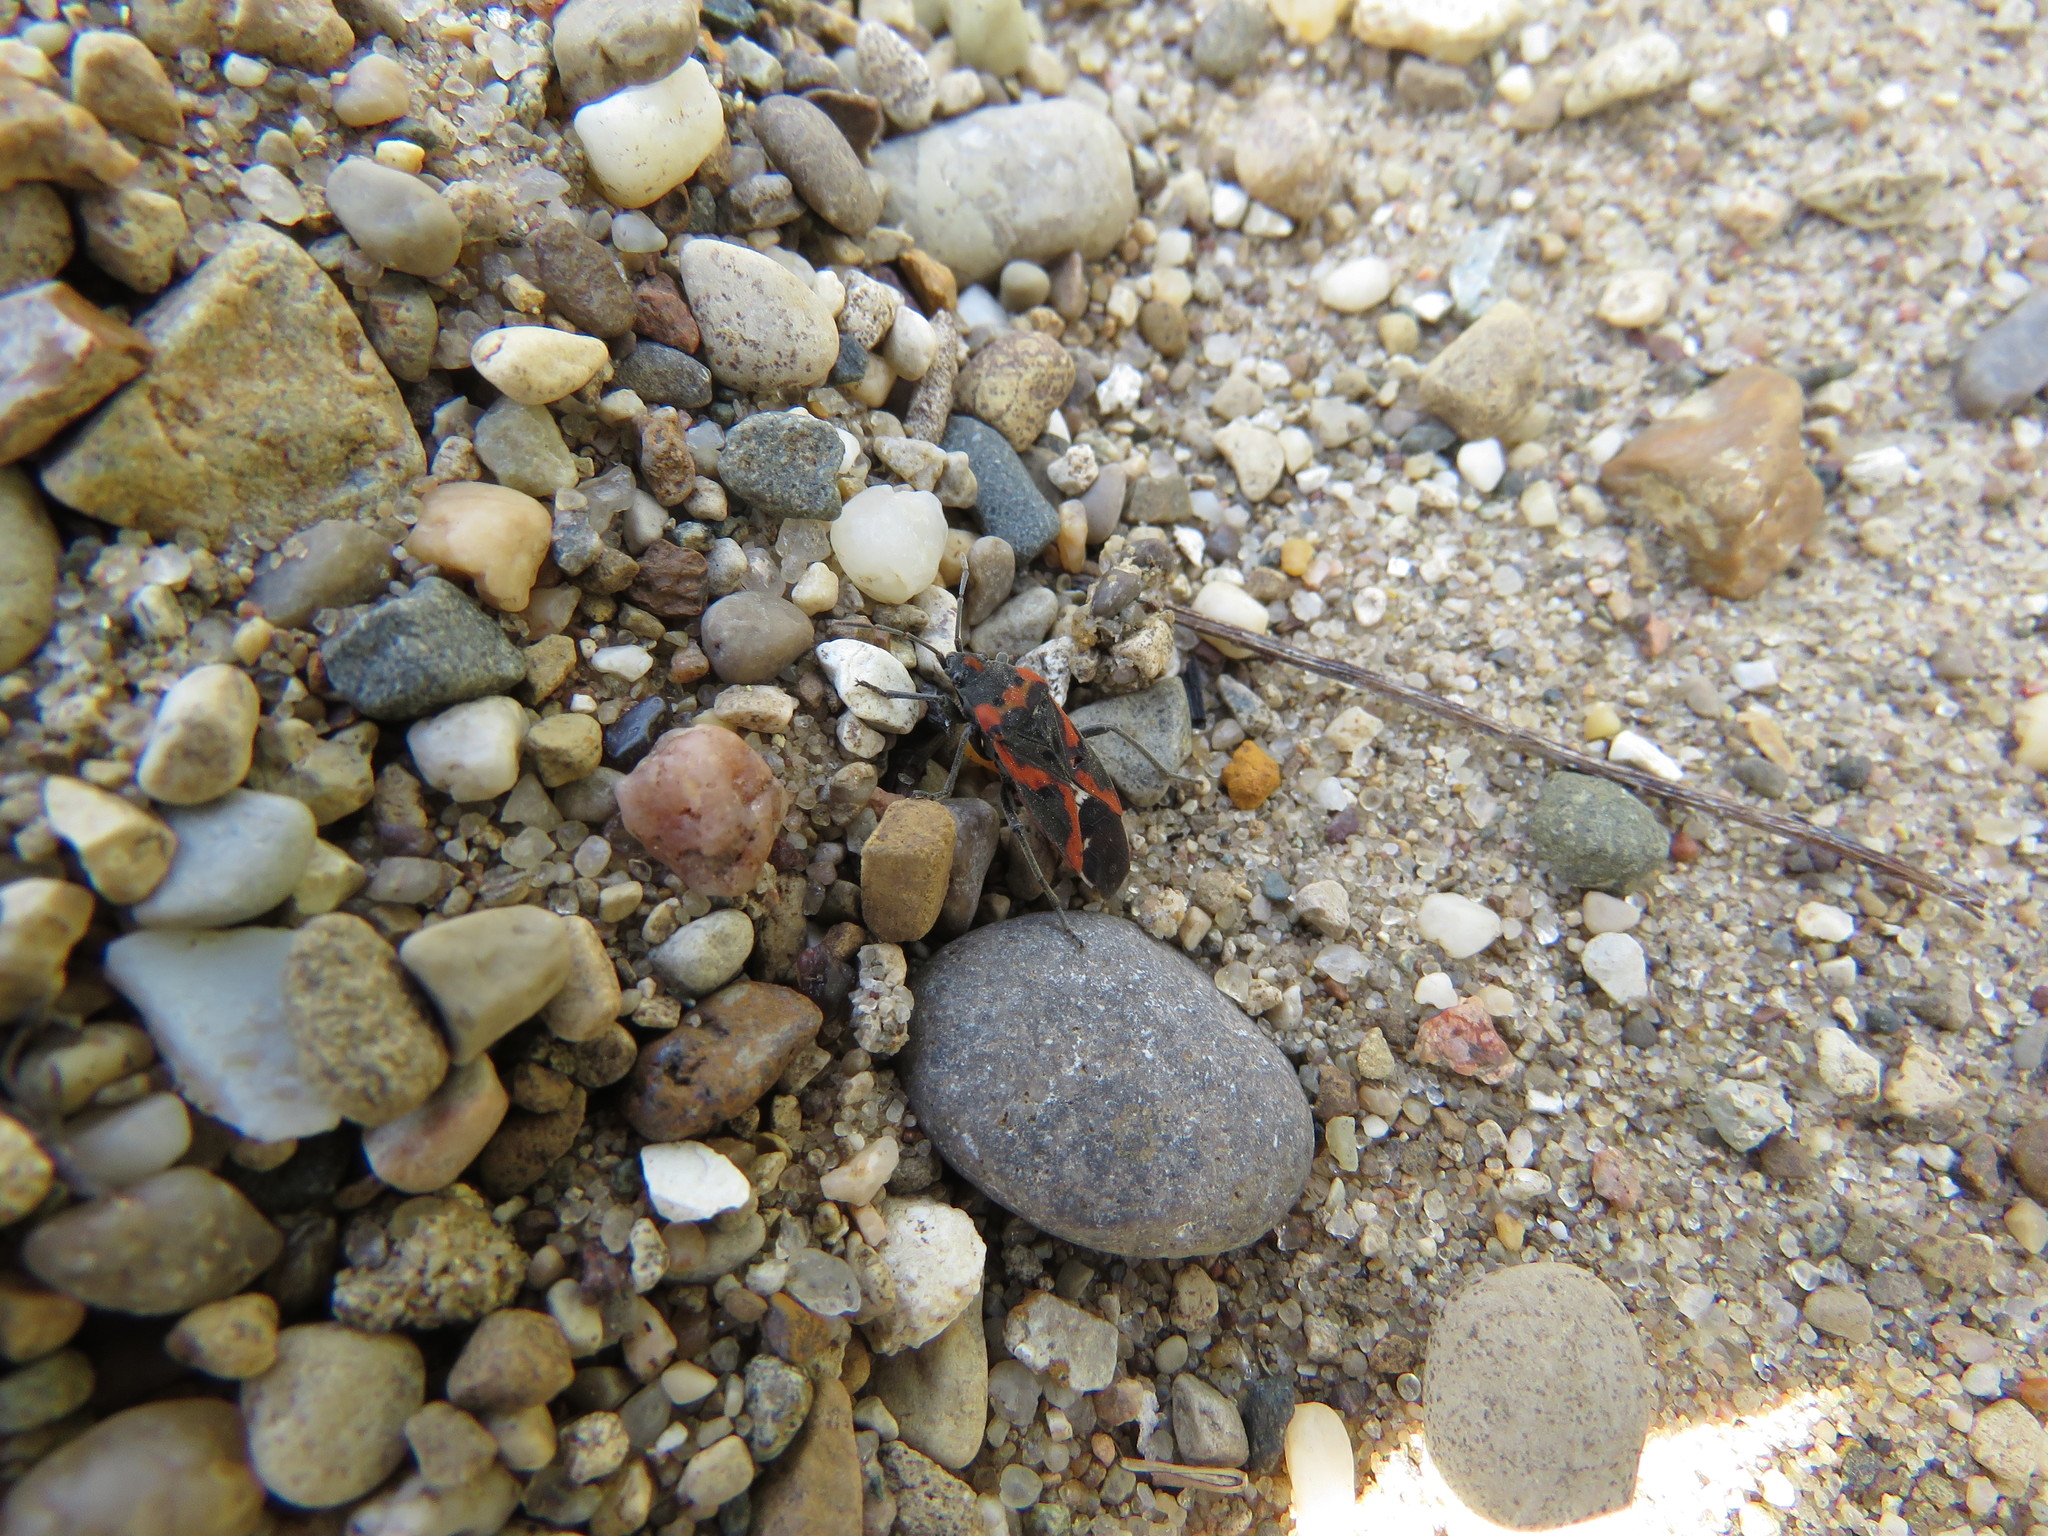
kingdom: Animalia
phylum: Arthropoda
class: Insecta
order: Hemiptera
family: Lygaeidae
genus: Lygaeus
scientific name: Lygaeus kalmii
